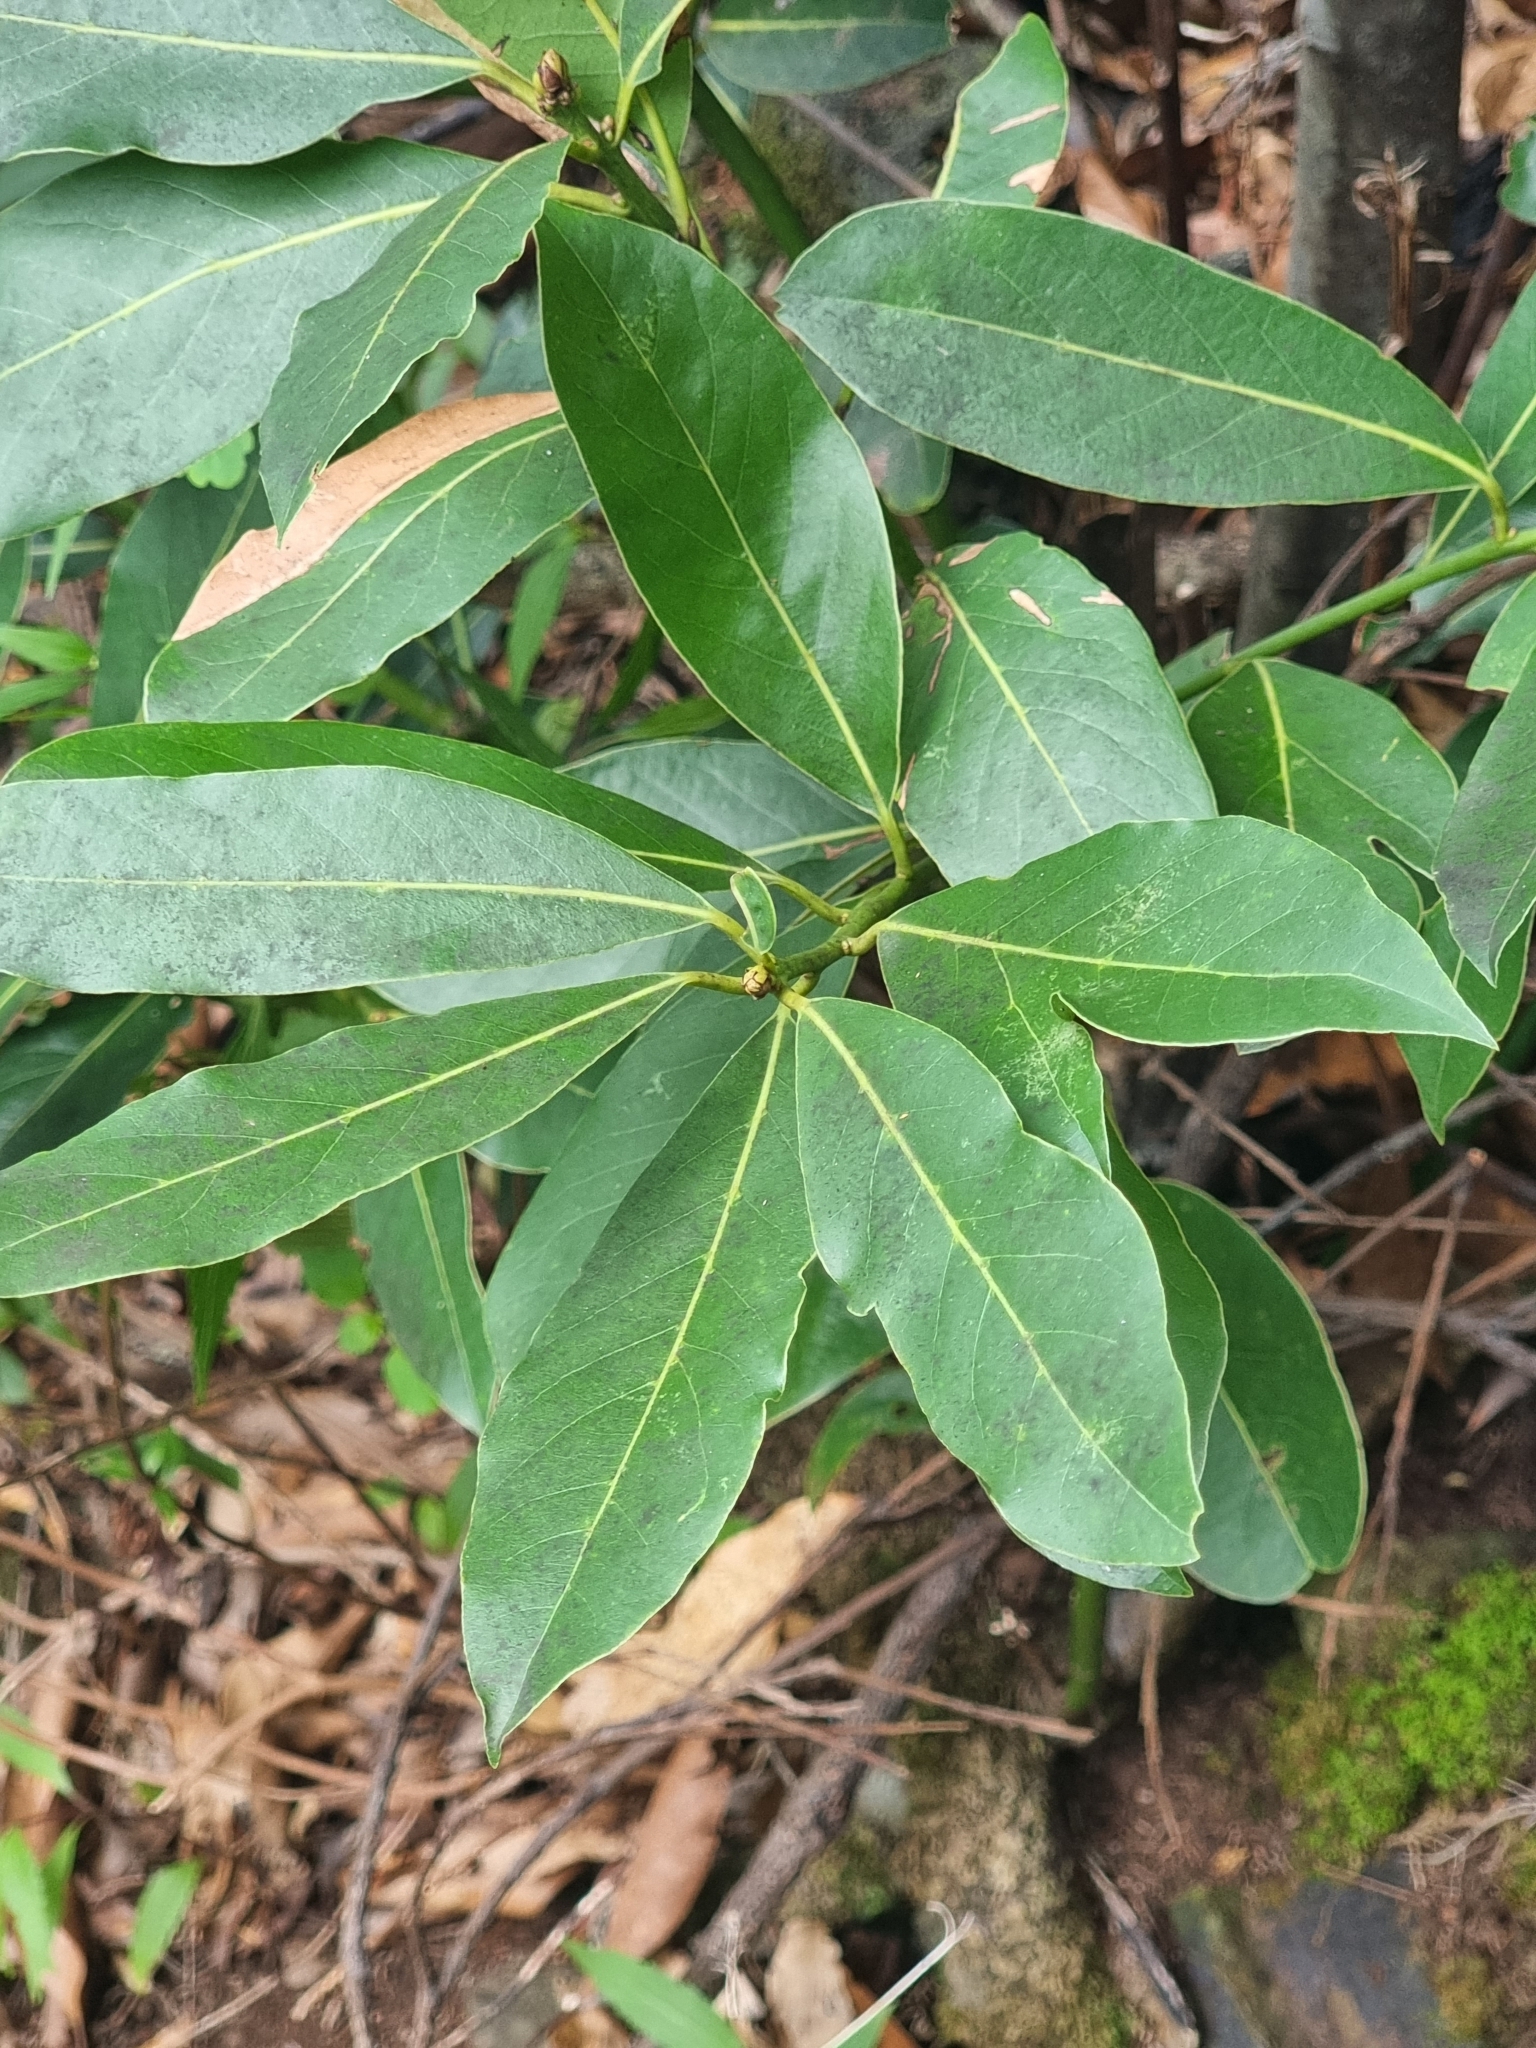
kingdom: Plantae
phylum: Tracheophyta
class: Magnoliopsida
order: Laurales
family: Lauraceae
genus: Laurus
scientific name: Laurus novocanariensis
